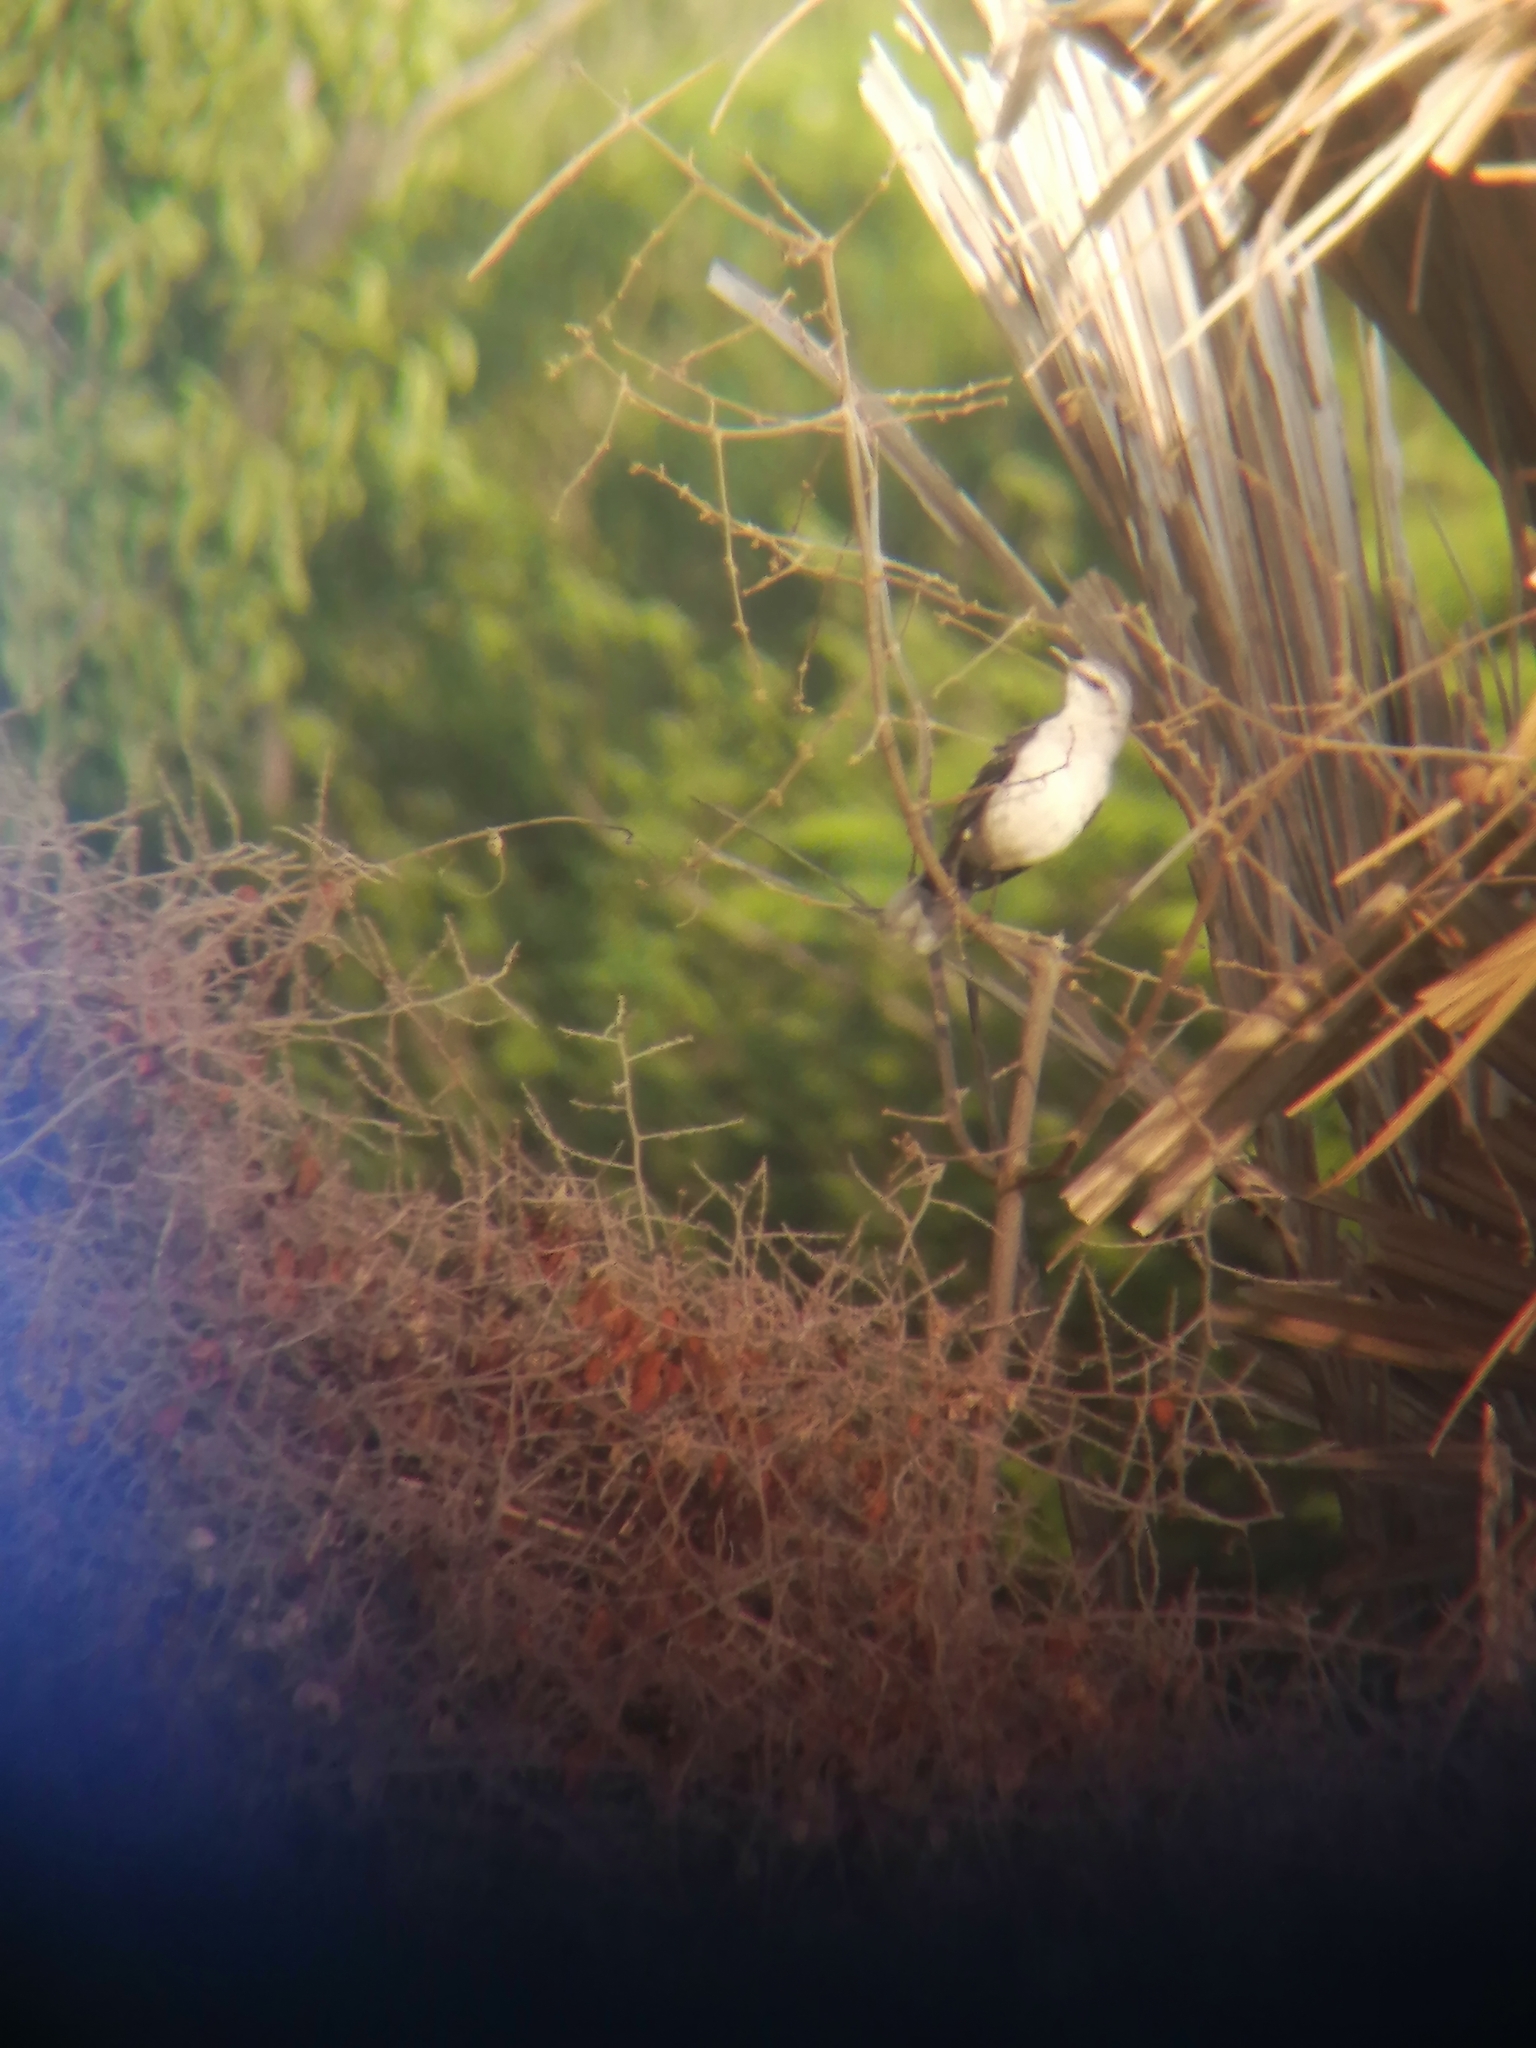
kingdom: Animalia
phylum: Chordata
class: Aves
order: Passeriformes
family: Mimidae
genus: Mimus
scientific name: Mimus gilvus
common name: Tropical mockingbird
